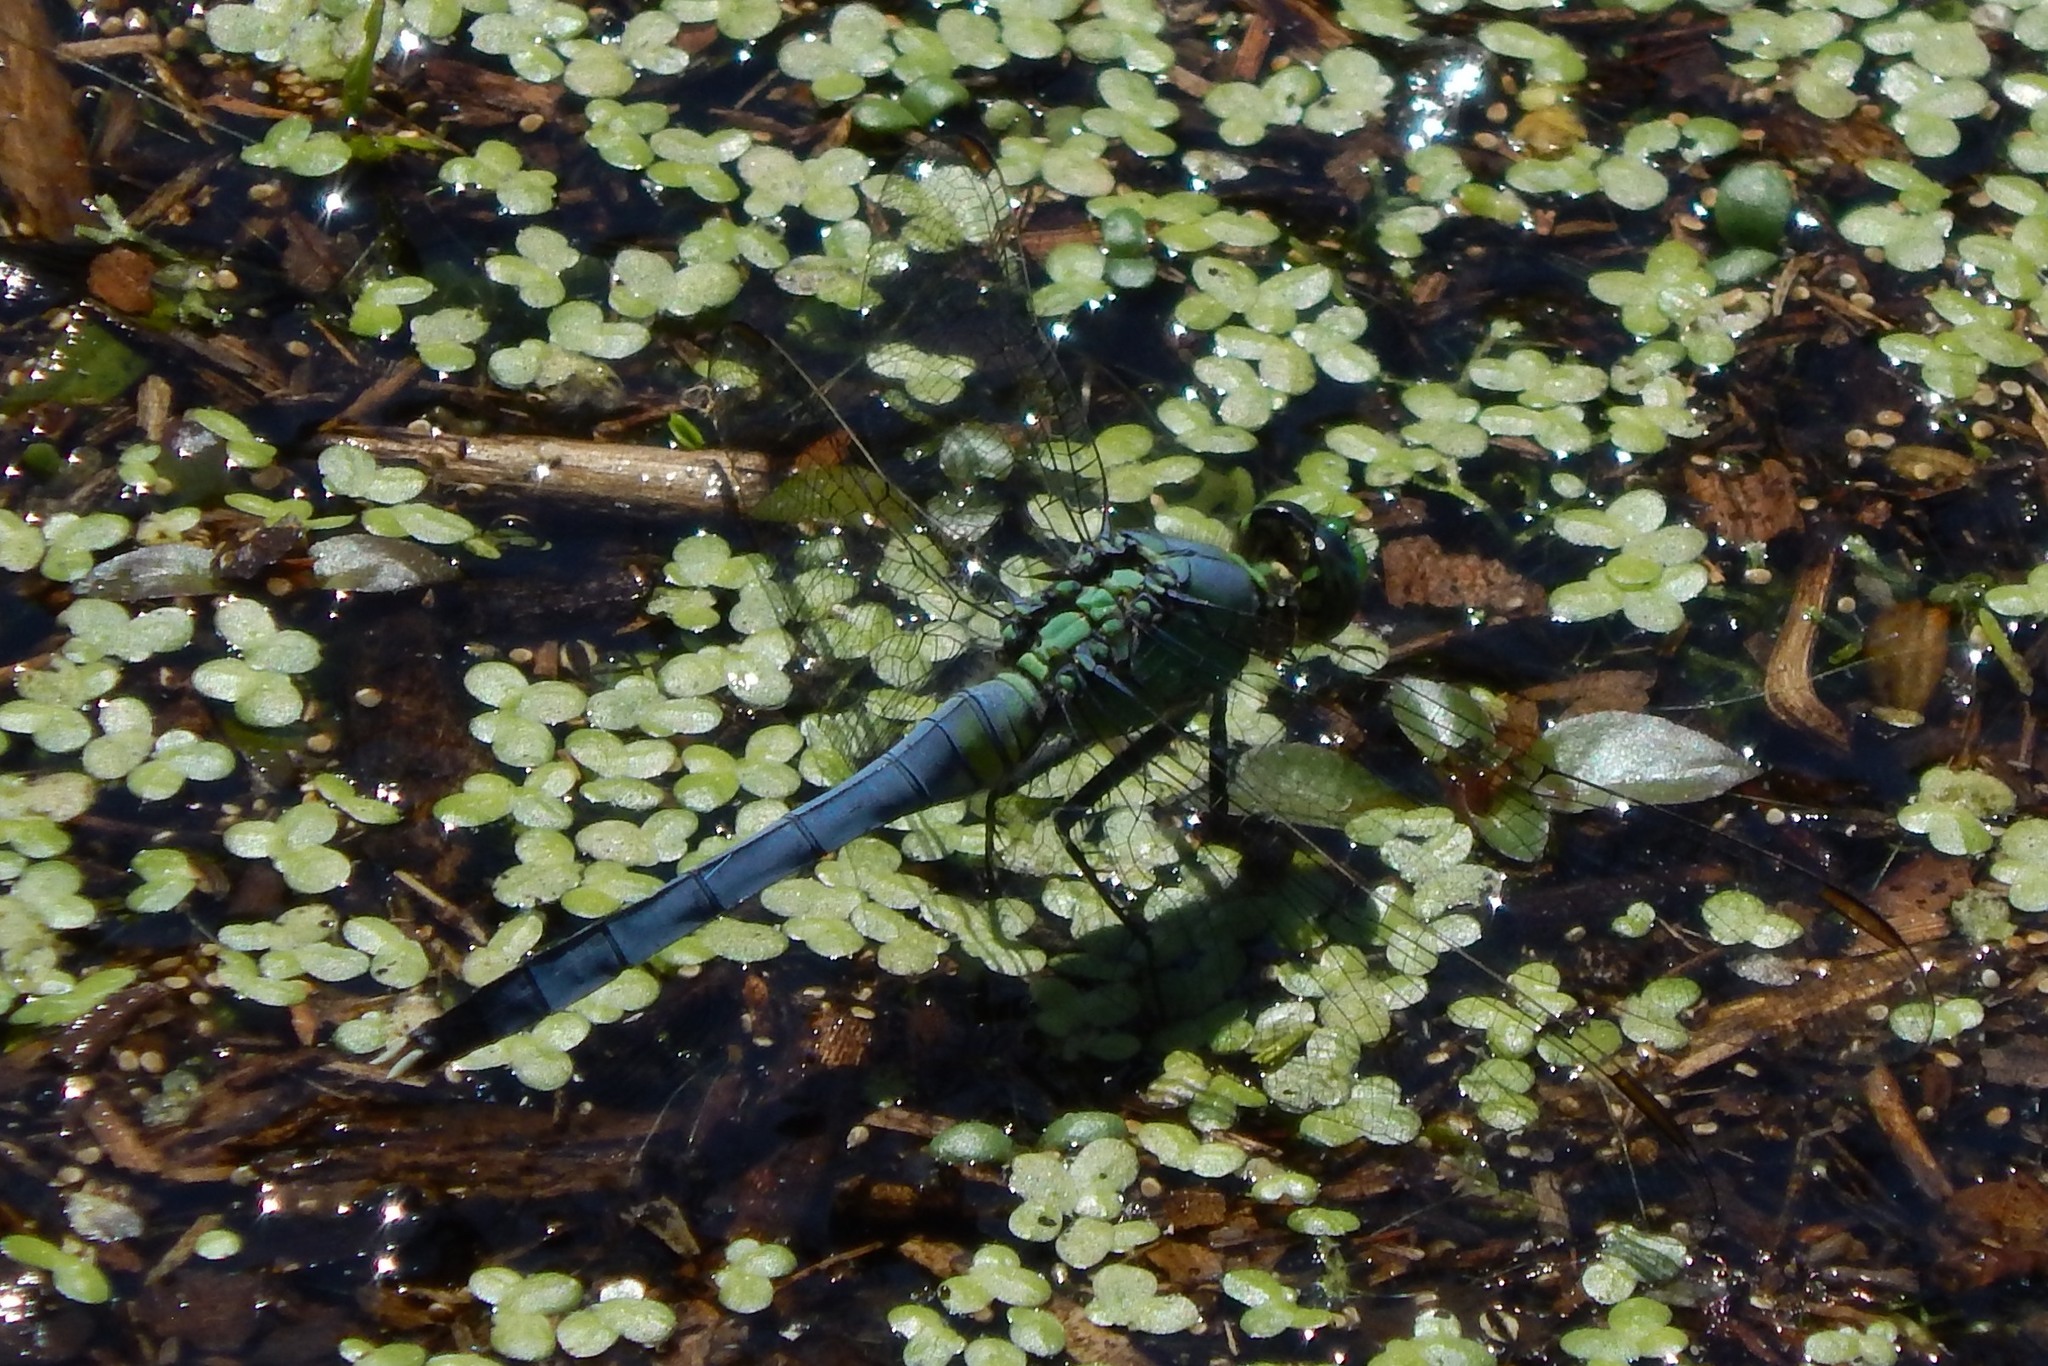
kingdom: Animalia
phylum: Arthropoda
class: Insecta
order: Odonata
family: Libellulidae
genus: Erythemis
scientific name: Erythemis simplicicollis
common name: Eastern pondhawk
